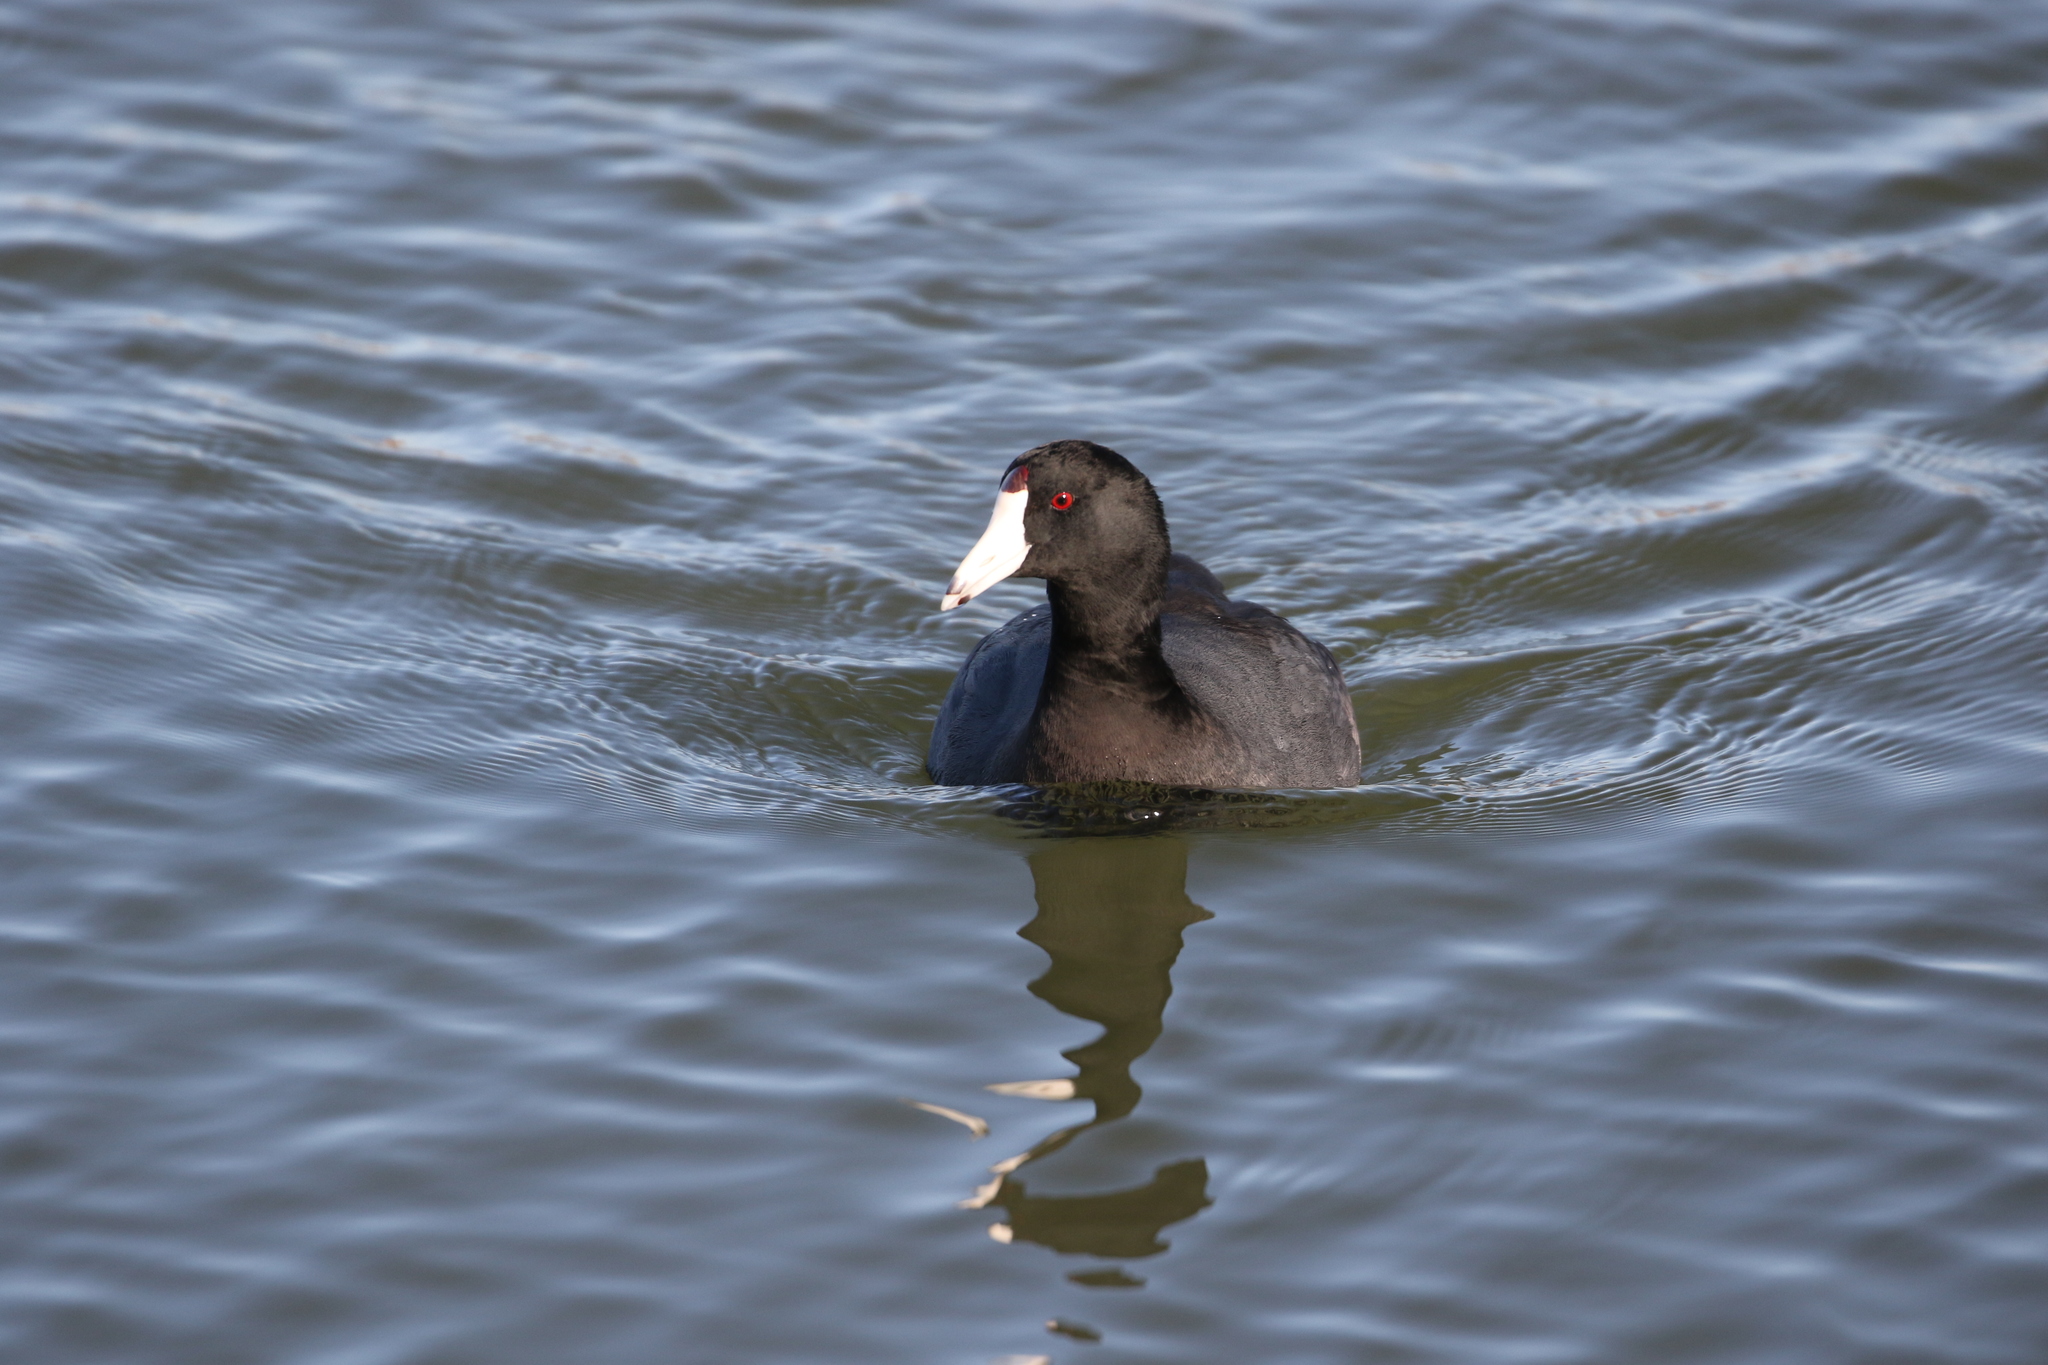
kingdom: Animalia
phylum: Chordata
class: Aves
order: Gruiformes
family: Rallidae
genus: Fulica
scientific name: Fulica americana
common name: American coot
